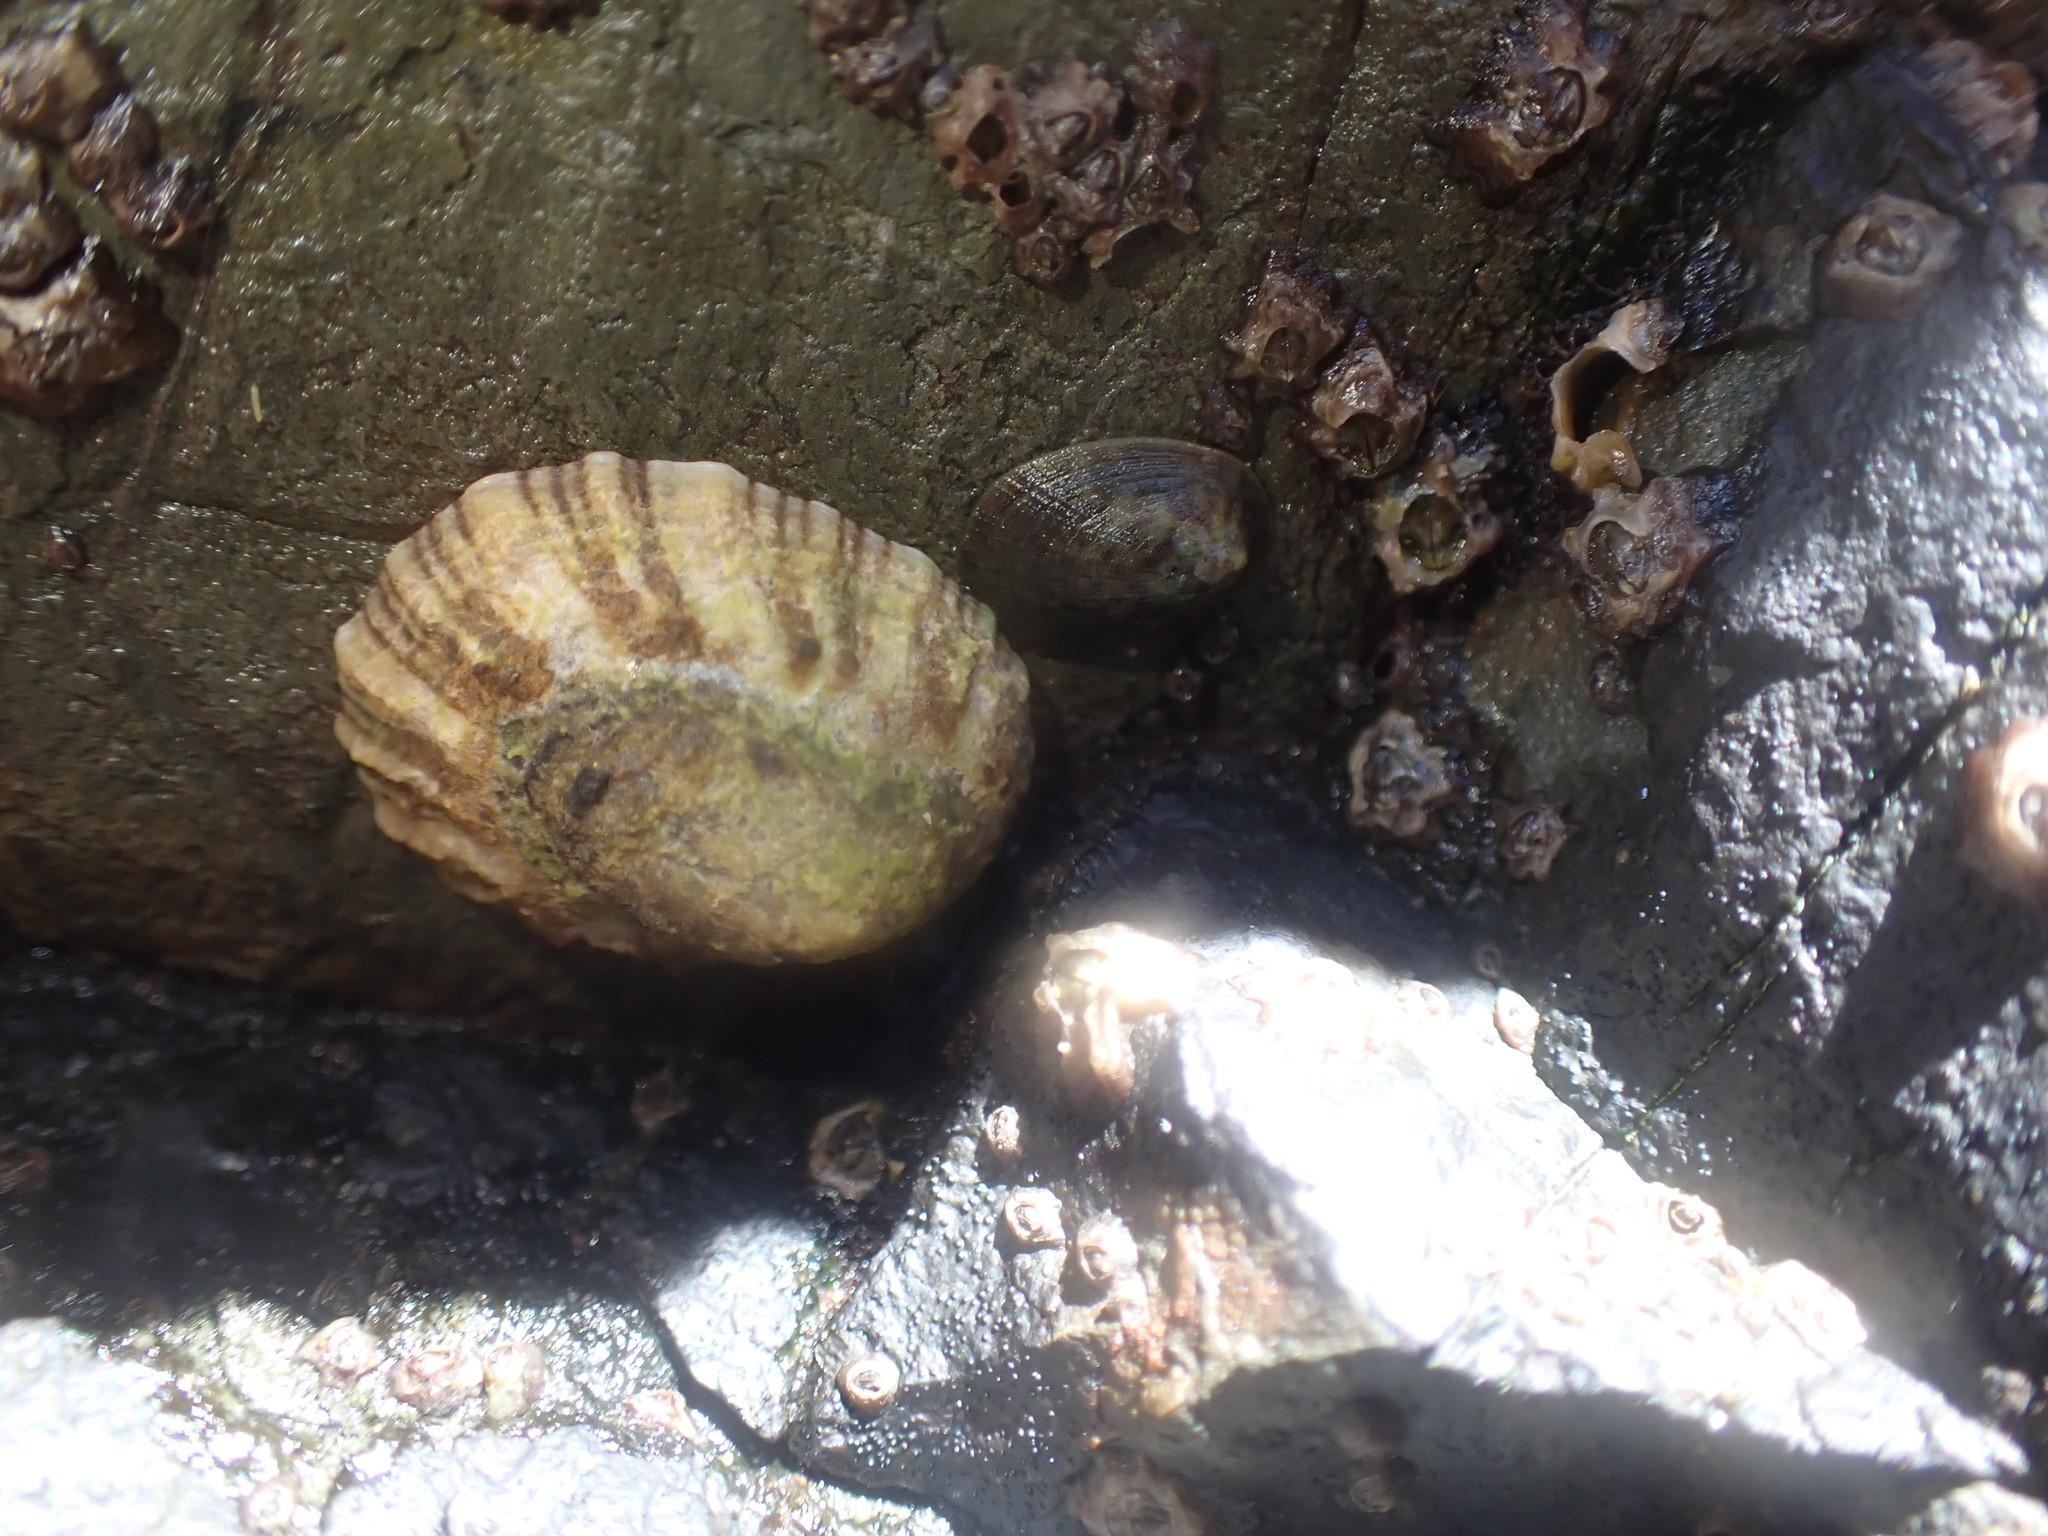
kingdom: Animalia
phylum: Mollusca
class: Gastropoda
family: Nacellidae
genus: Cellana
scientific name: Cellana ornata
